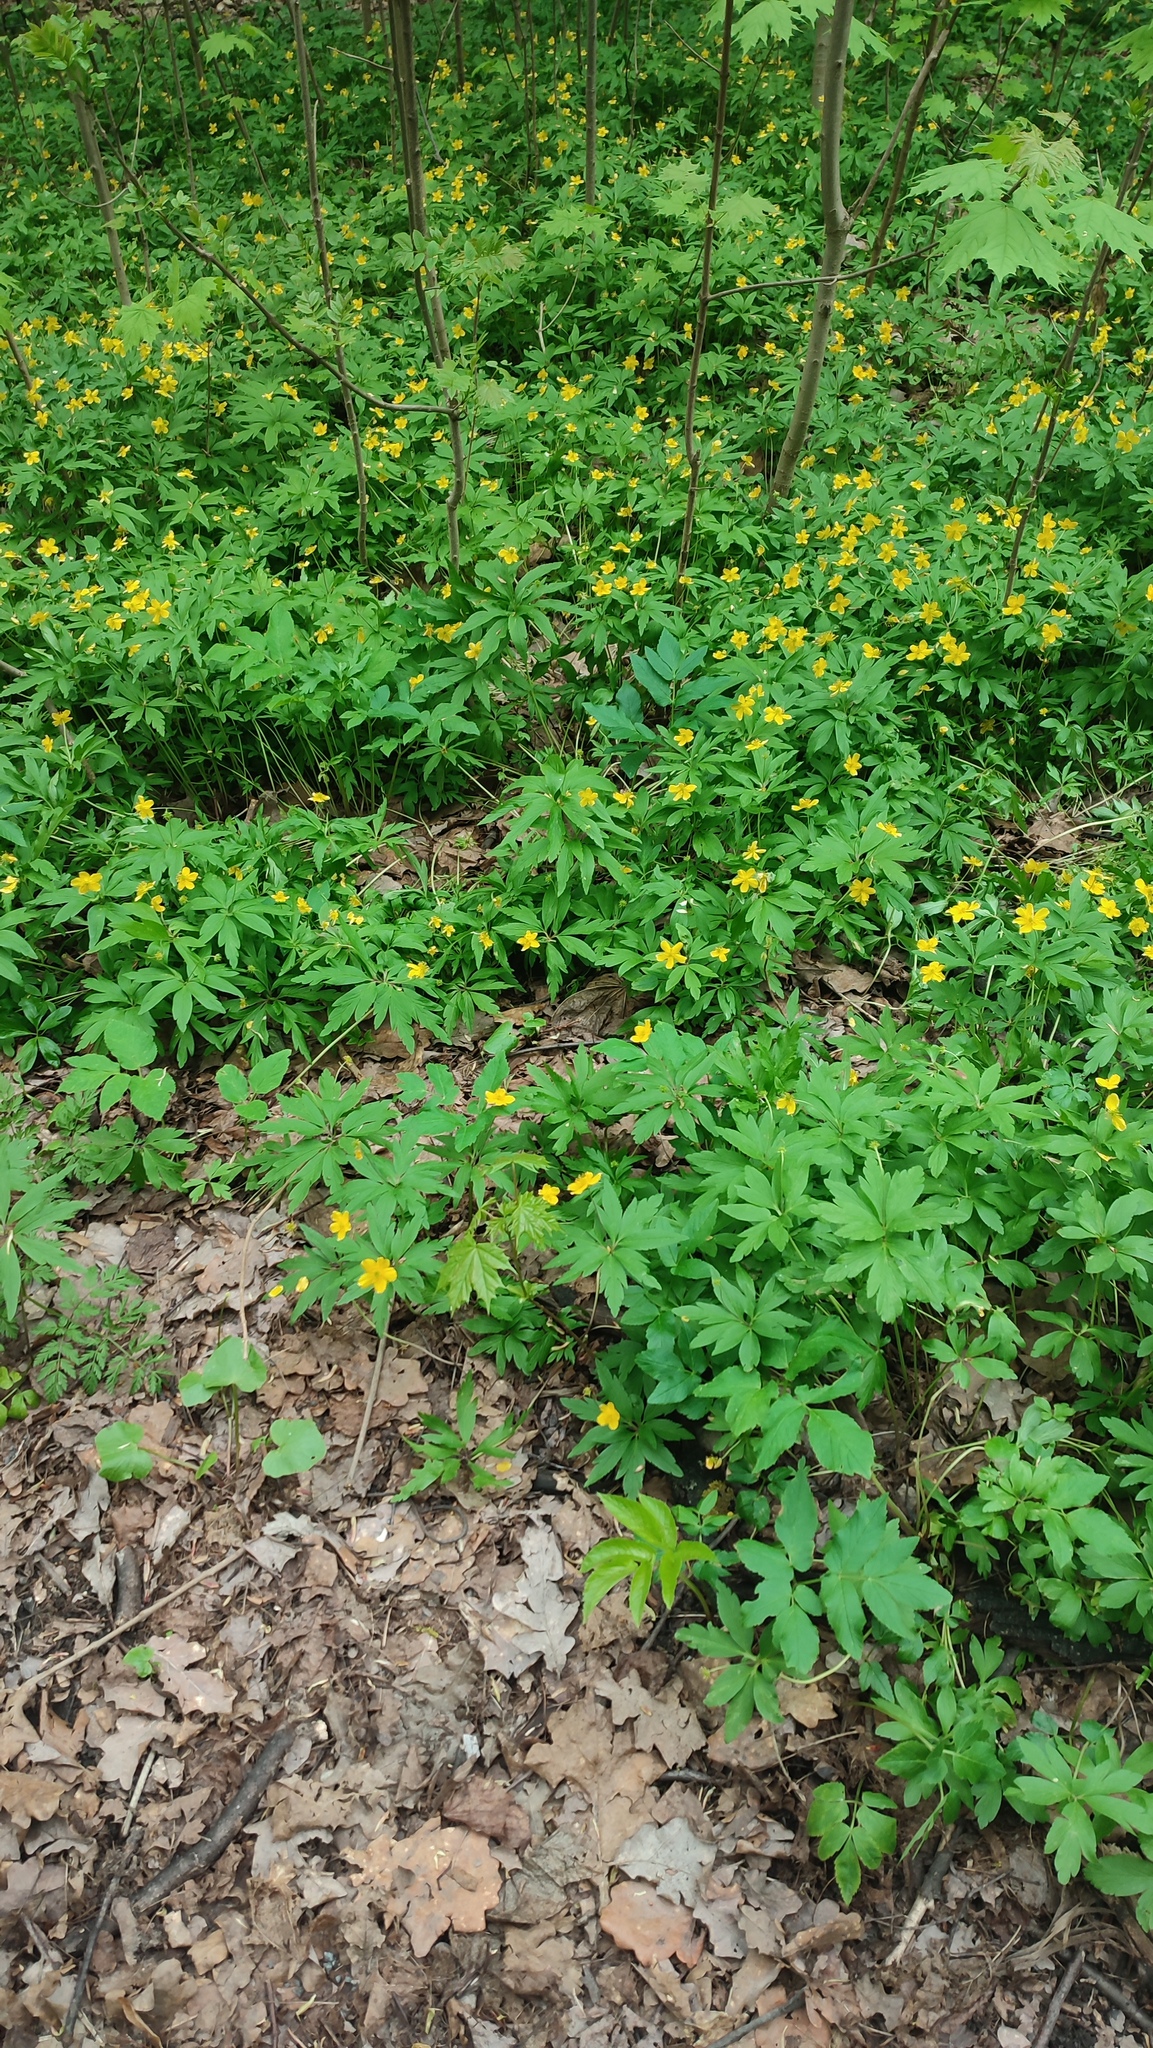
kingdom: Plantae
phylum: Tracheophyta
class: Magnoliopsida
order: Ranunculales
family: Ranunculaceae
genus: Anemone
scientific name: Anemone ranunculoides
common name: Yellow anemone
